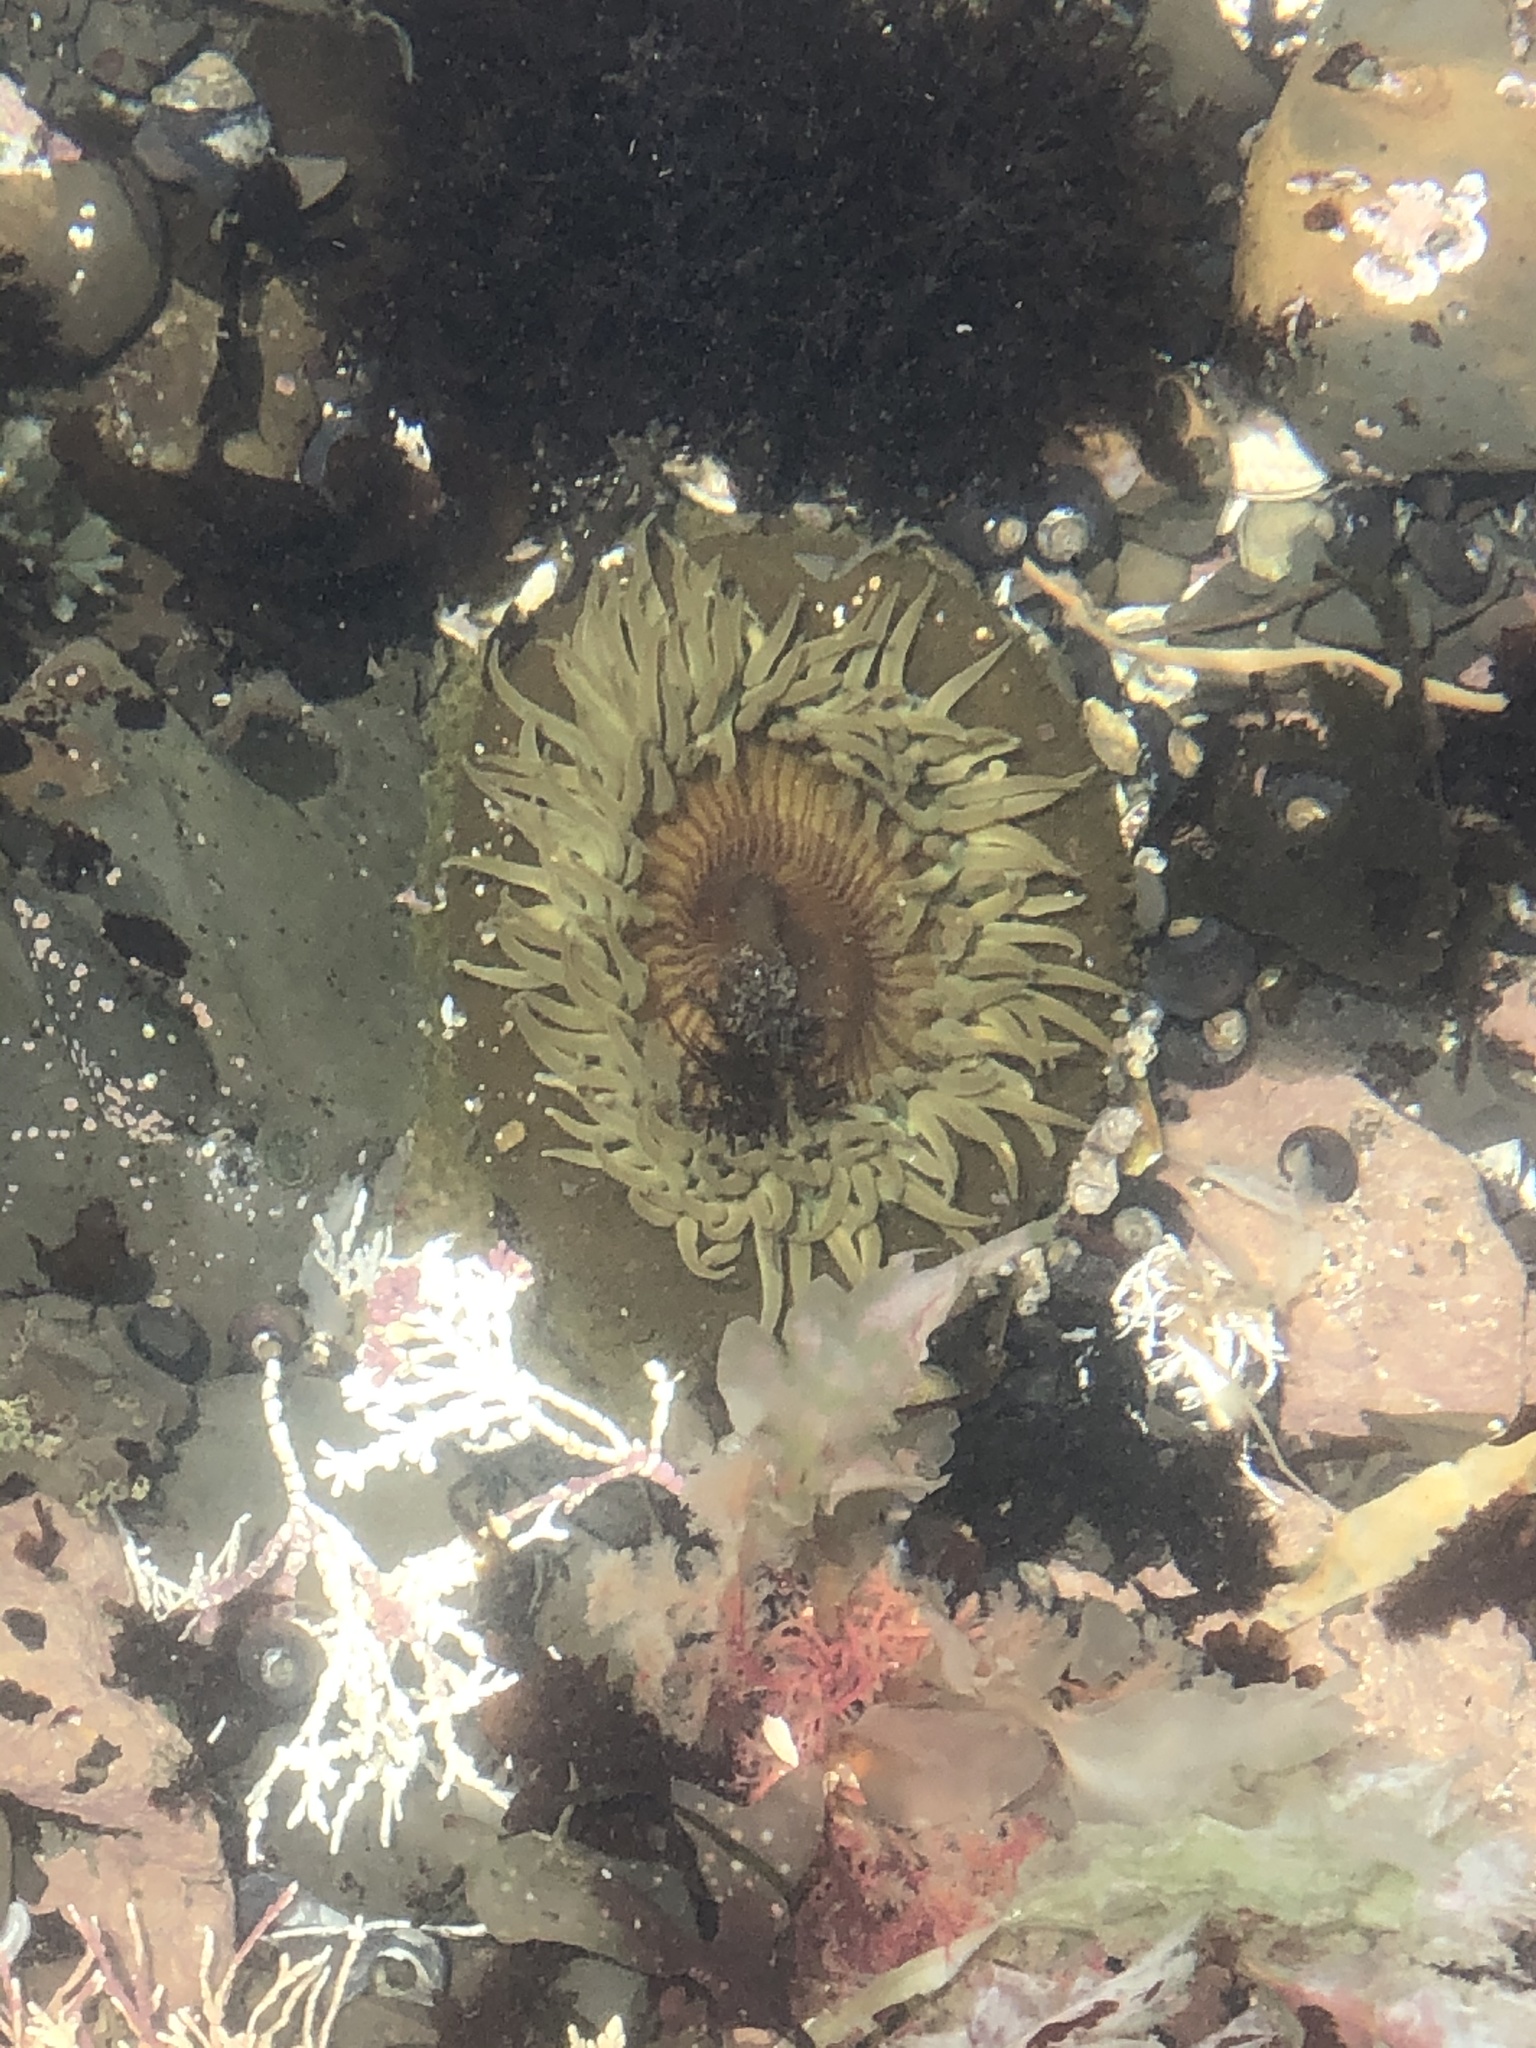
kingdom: Animalia
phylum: Cnidaria
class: Anthozoa
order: Actiniaria
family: Actiniidae
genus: Anthopleura
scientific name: Anthopleura sola
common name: Sun anemone
